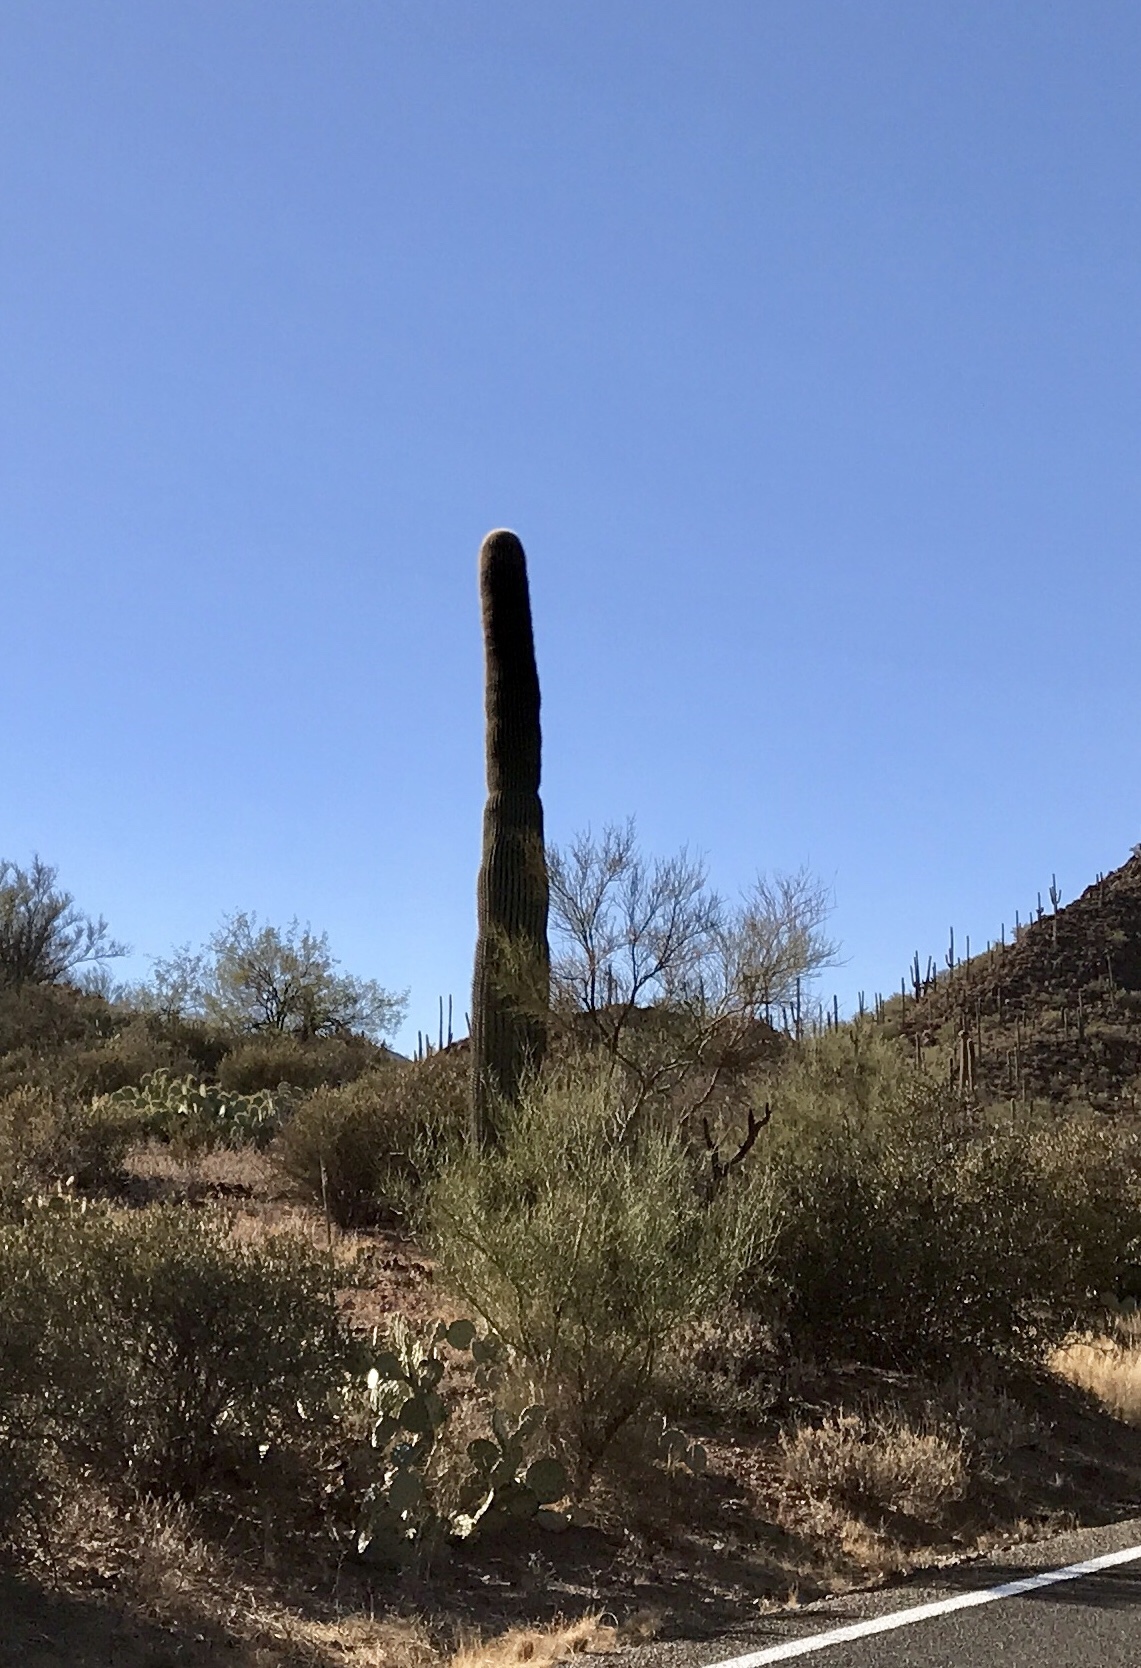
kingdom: Plantae
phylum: Tracheophyta
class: Magnoliopsida
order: Caryophyllales
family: Cactaceae
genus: Carnegiea
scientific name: Carnegiea gigantea
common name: Saguaro
